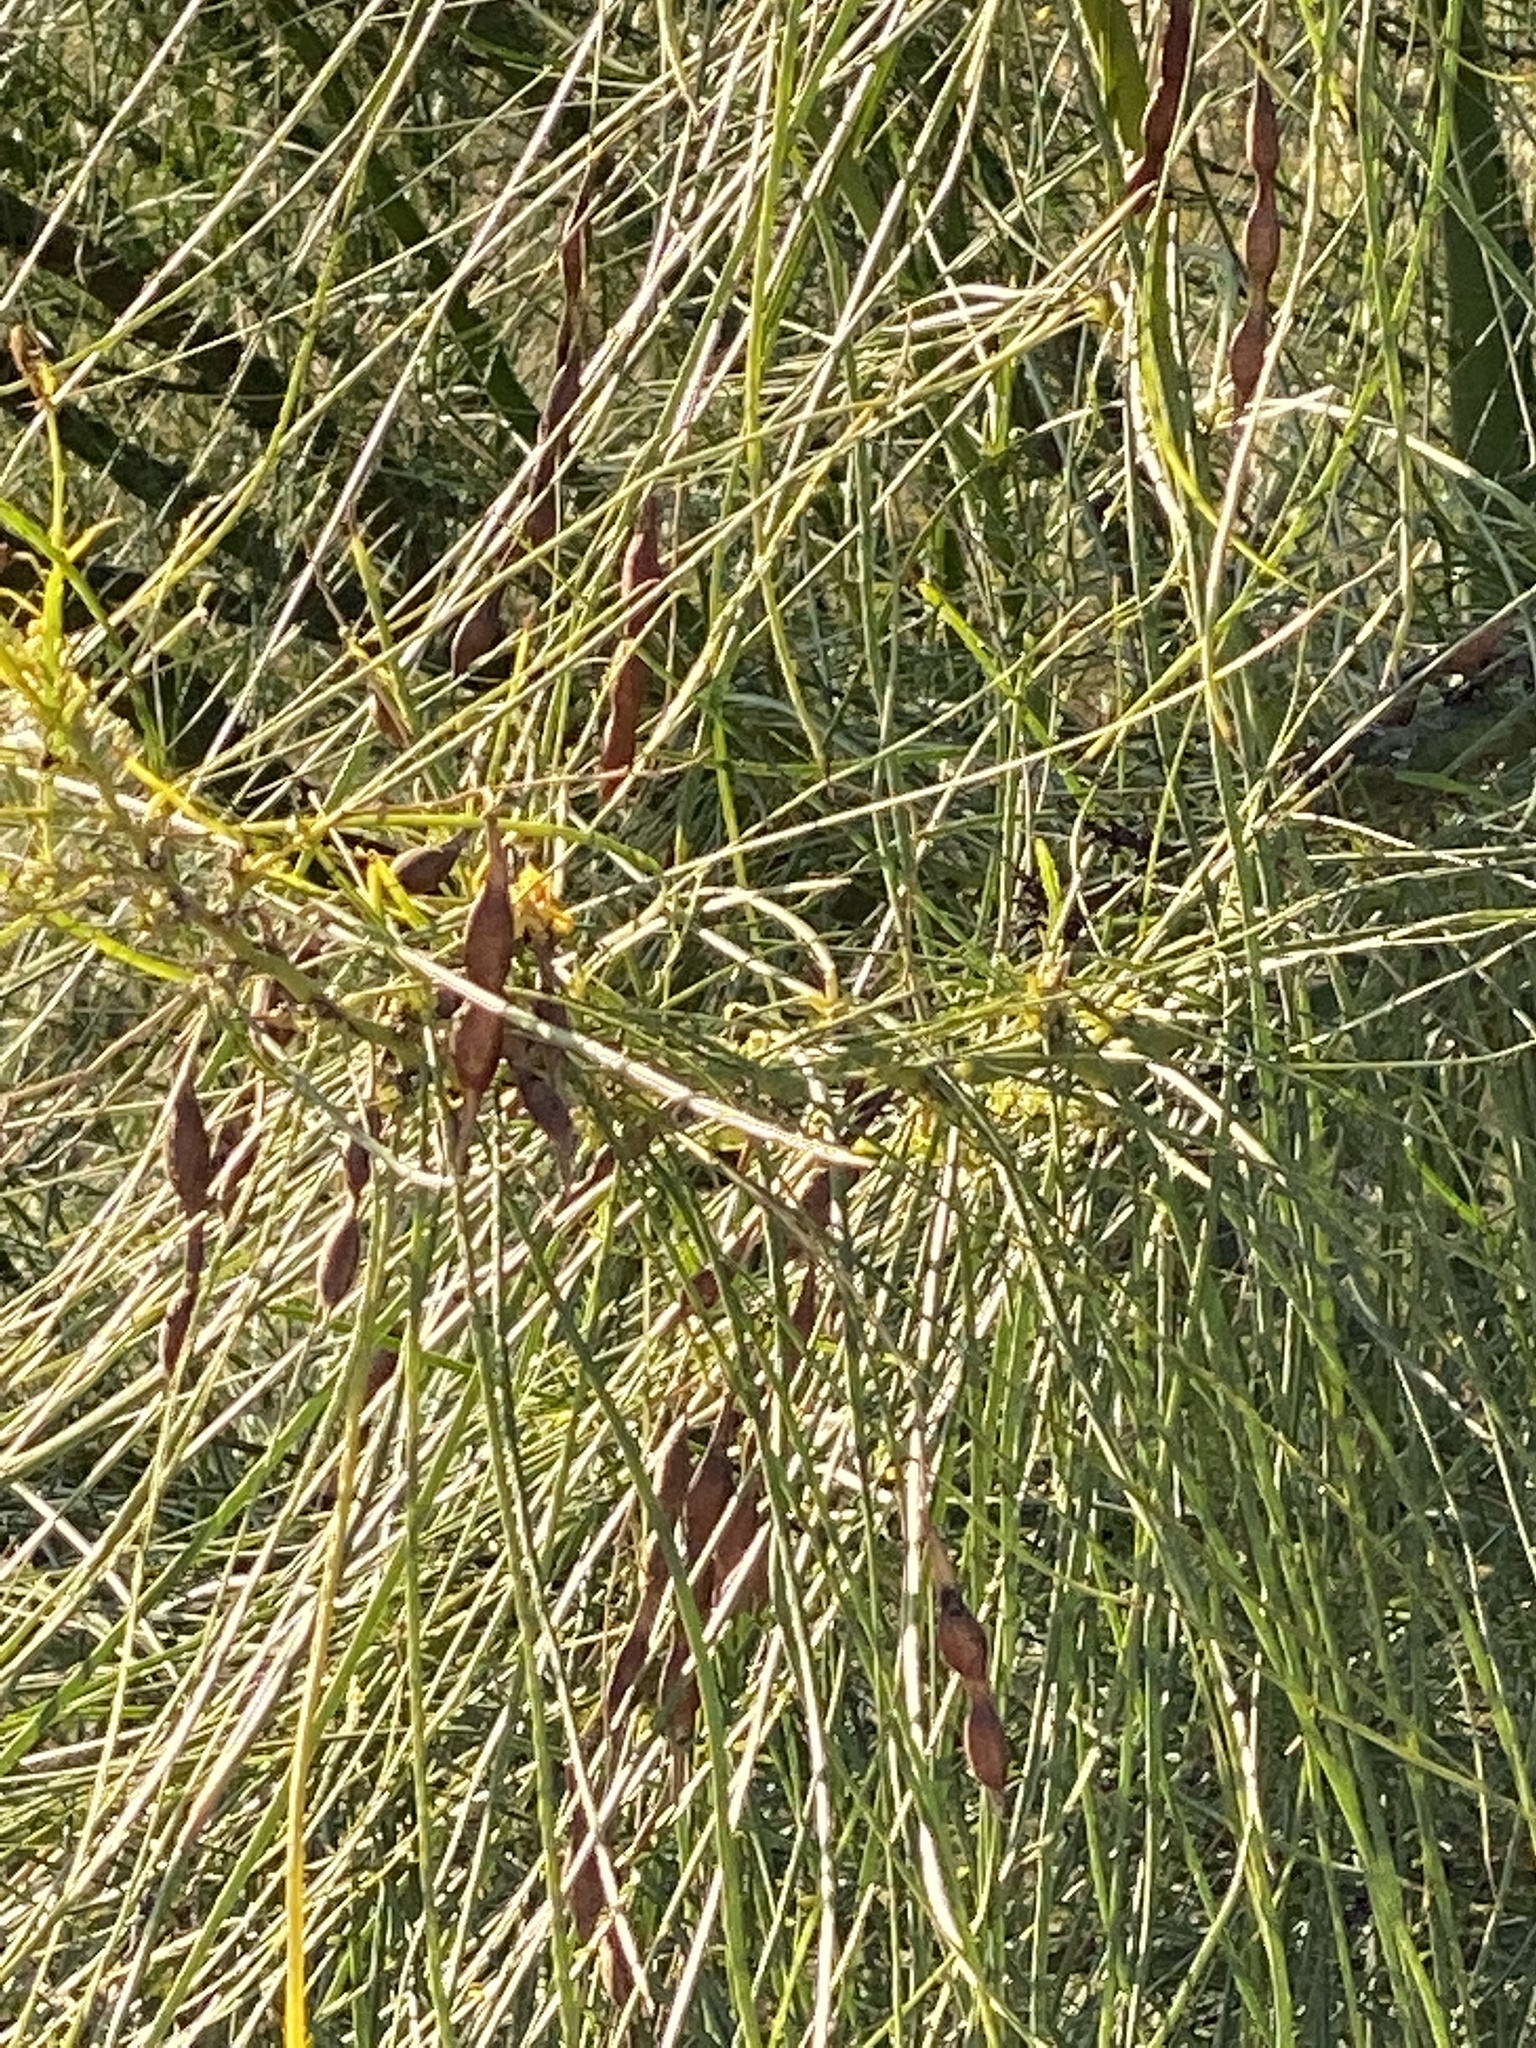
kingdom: Plantae
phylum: Tracheophyta
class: Magnoliopsida
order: Fabales
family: Fabaceae
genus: Parkinsonia
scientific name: Parkinsonia aculeata
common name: Jerusalem thorn
